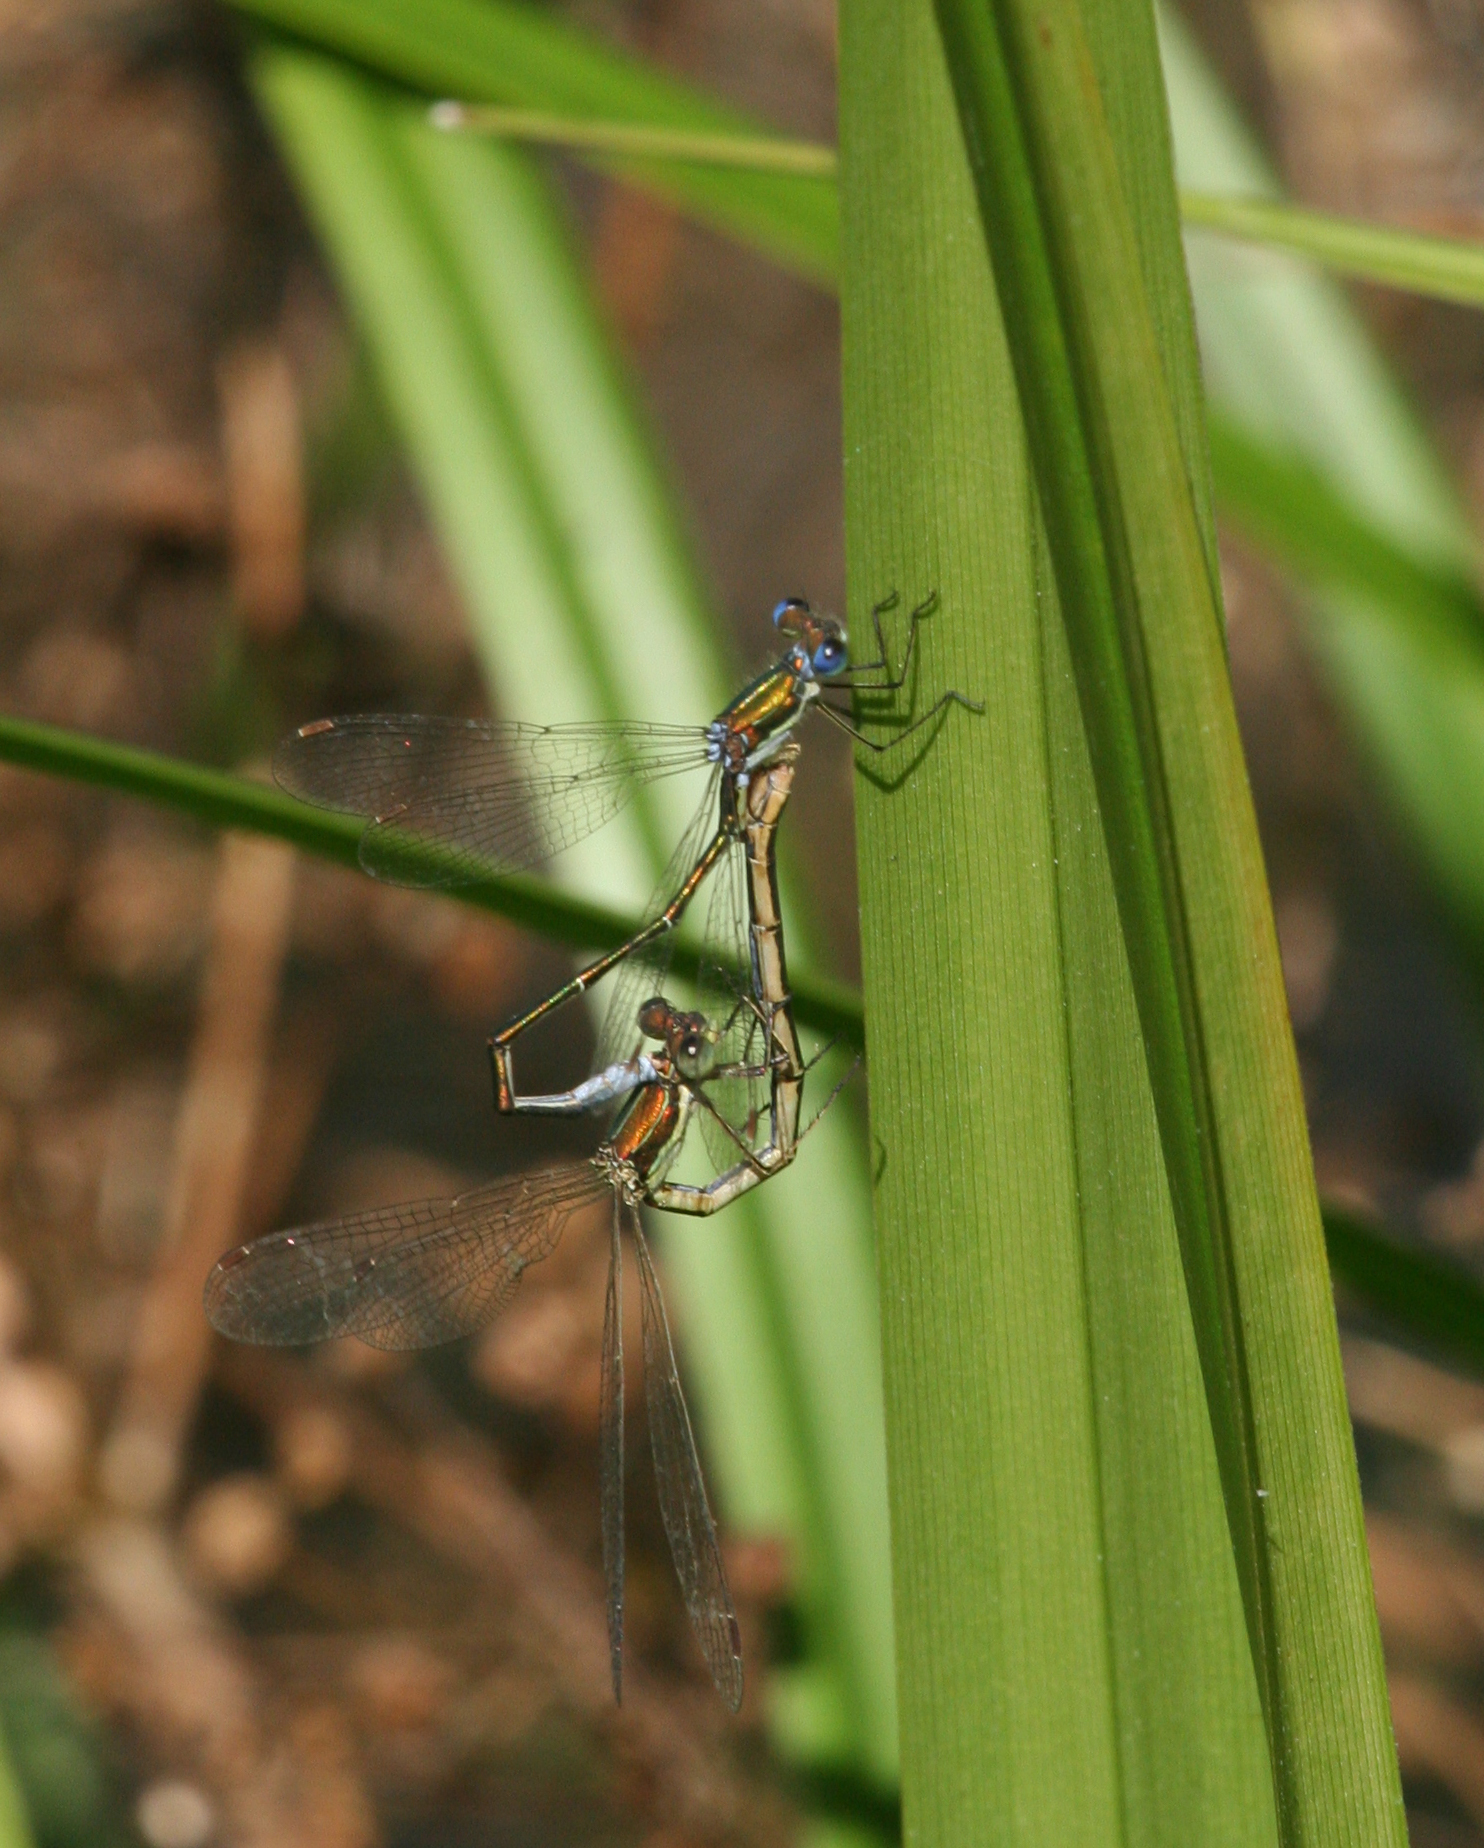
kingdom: Animalia
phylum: Arthropoda
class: Insecta
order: Odonata
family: Lestidae
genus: Lestes
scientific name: Lestes virens
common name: Small emerald spreadwing
